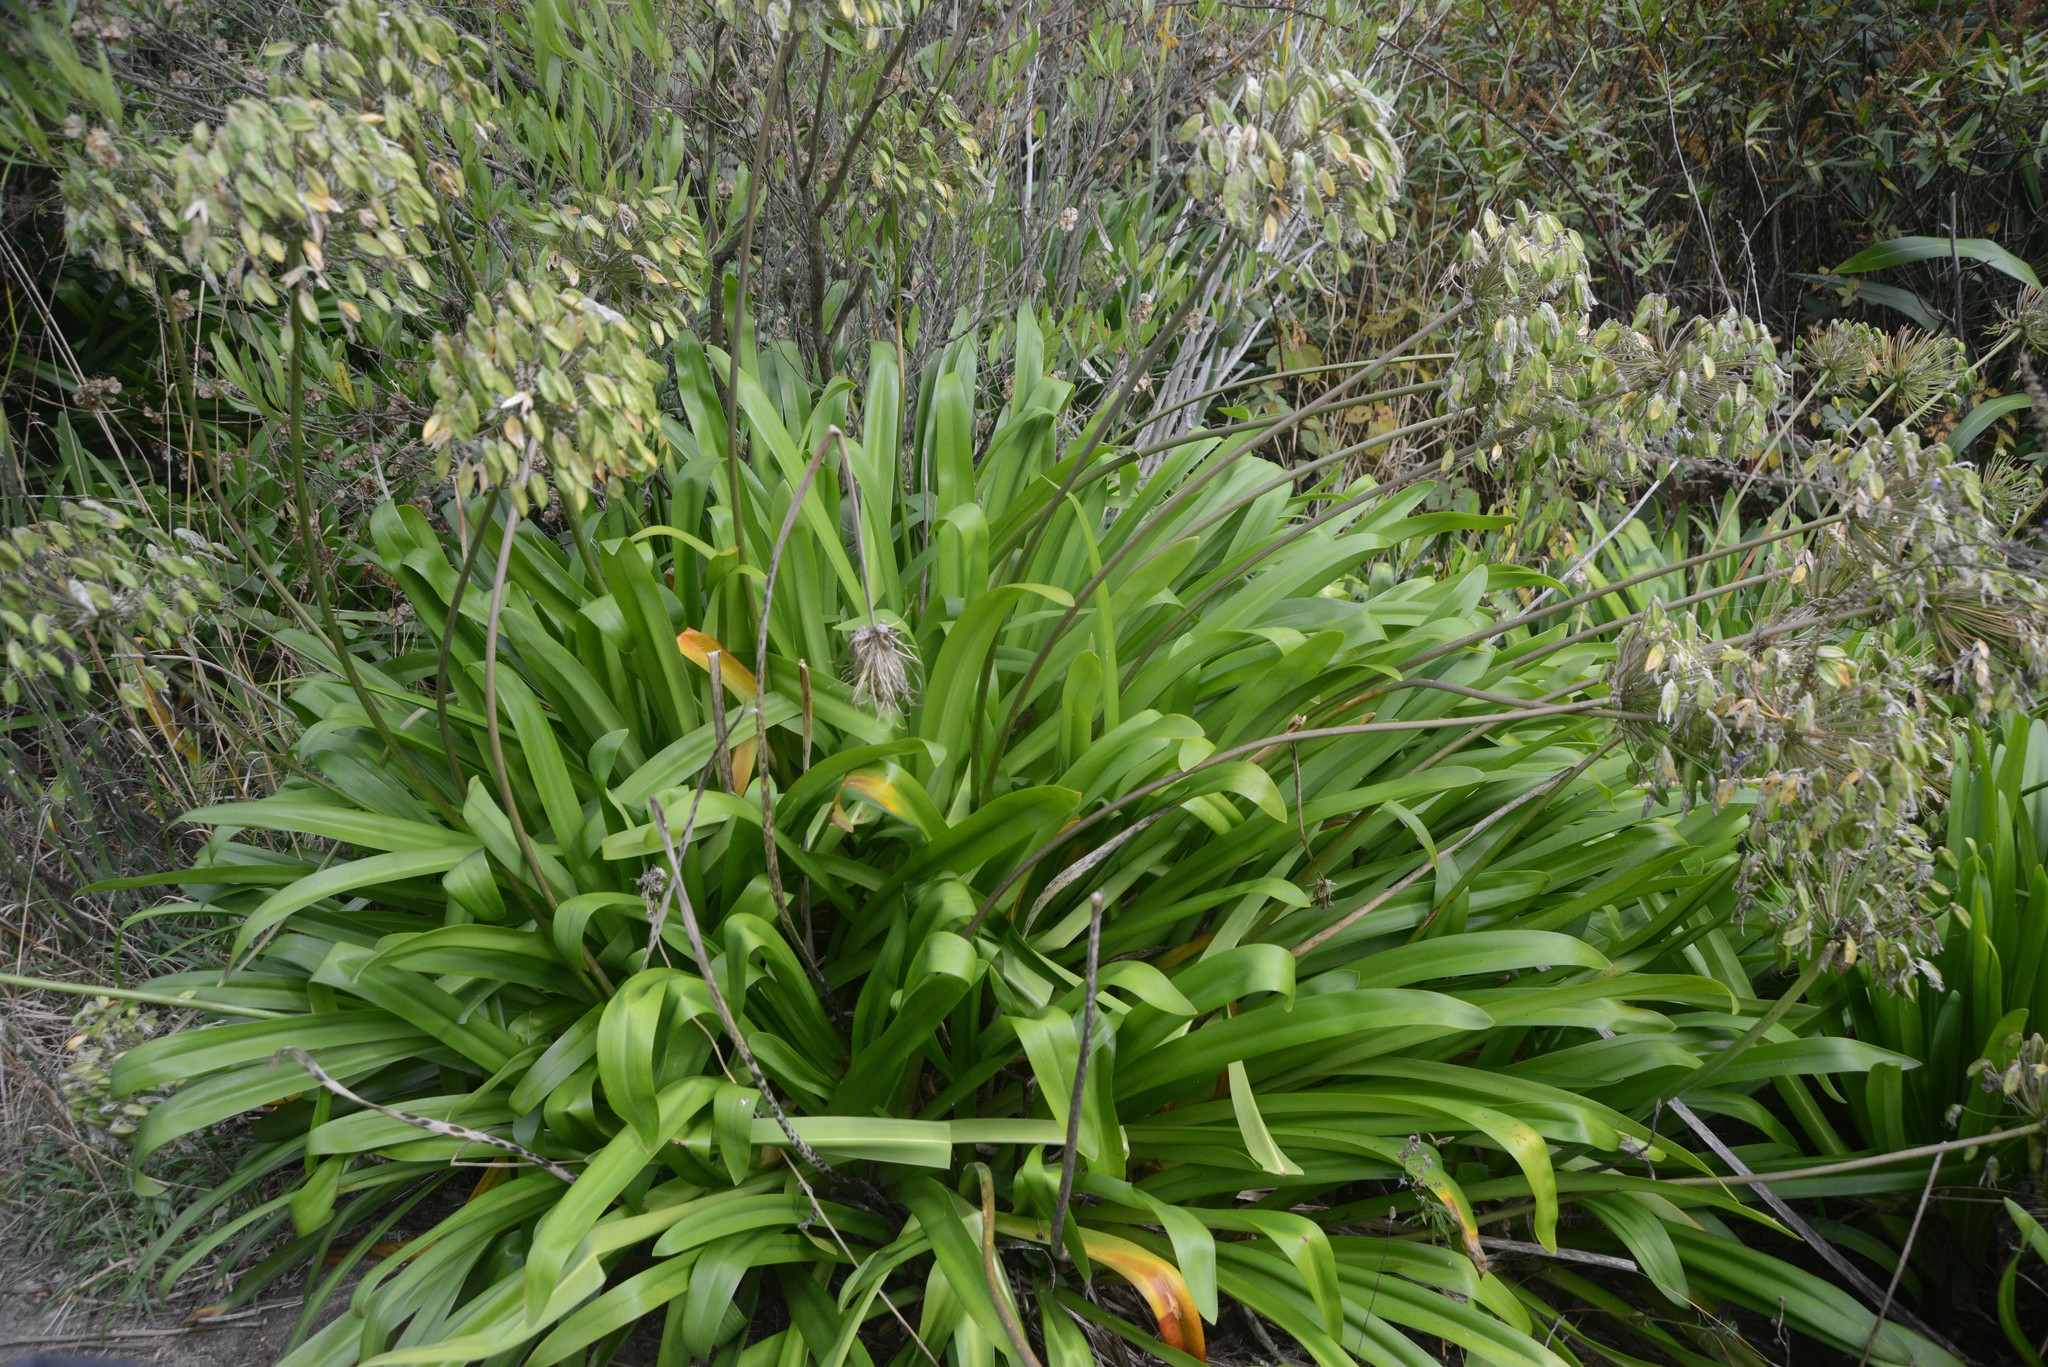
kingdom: Plantae
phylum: Tracheophyta
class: Liliopsida
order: Asparagales
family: Amaryllidaceae
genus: Agapanthus
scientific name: Agapanthus praecox
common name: African-lily
